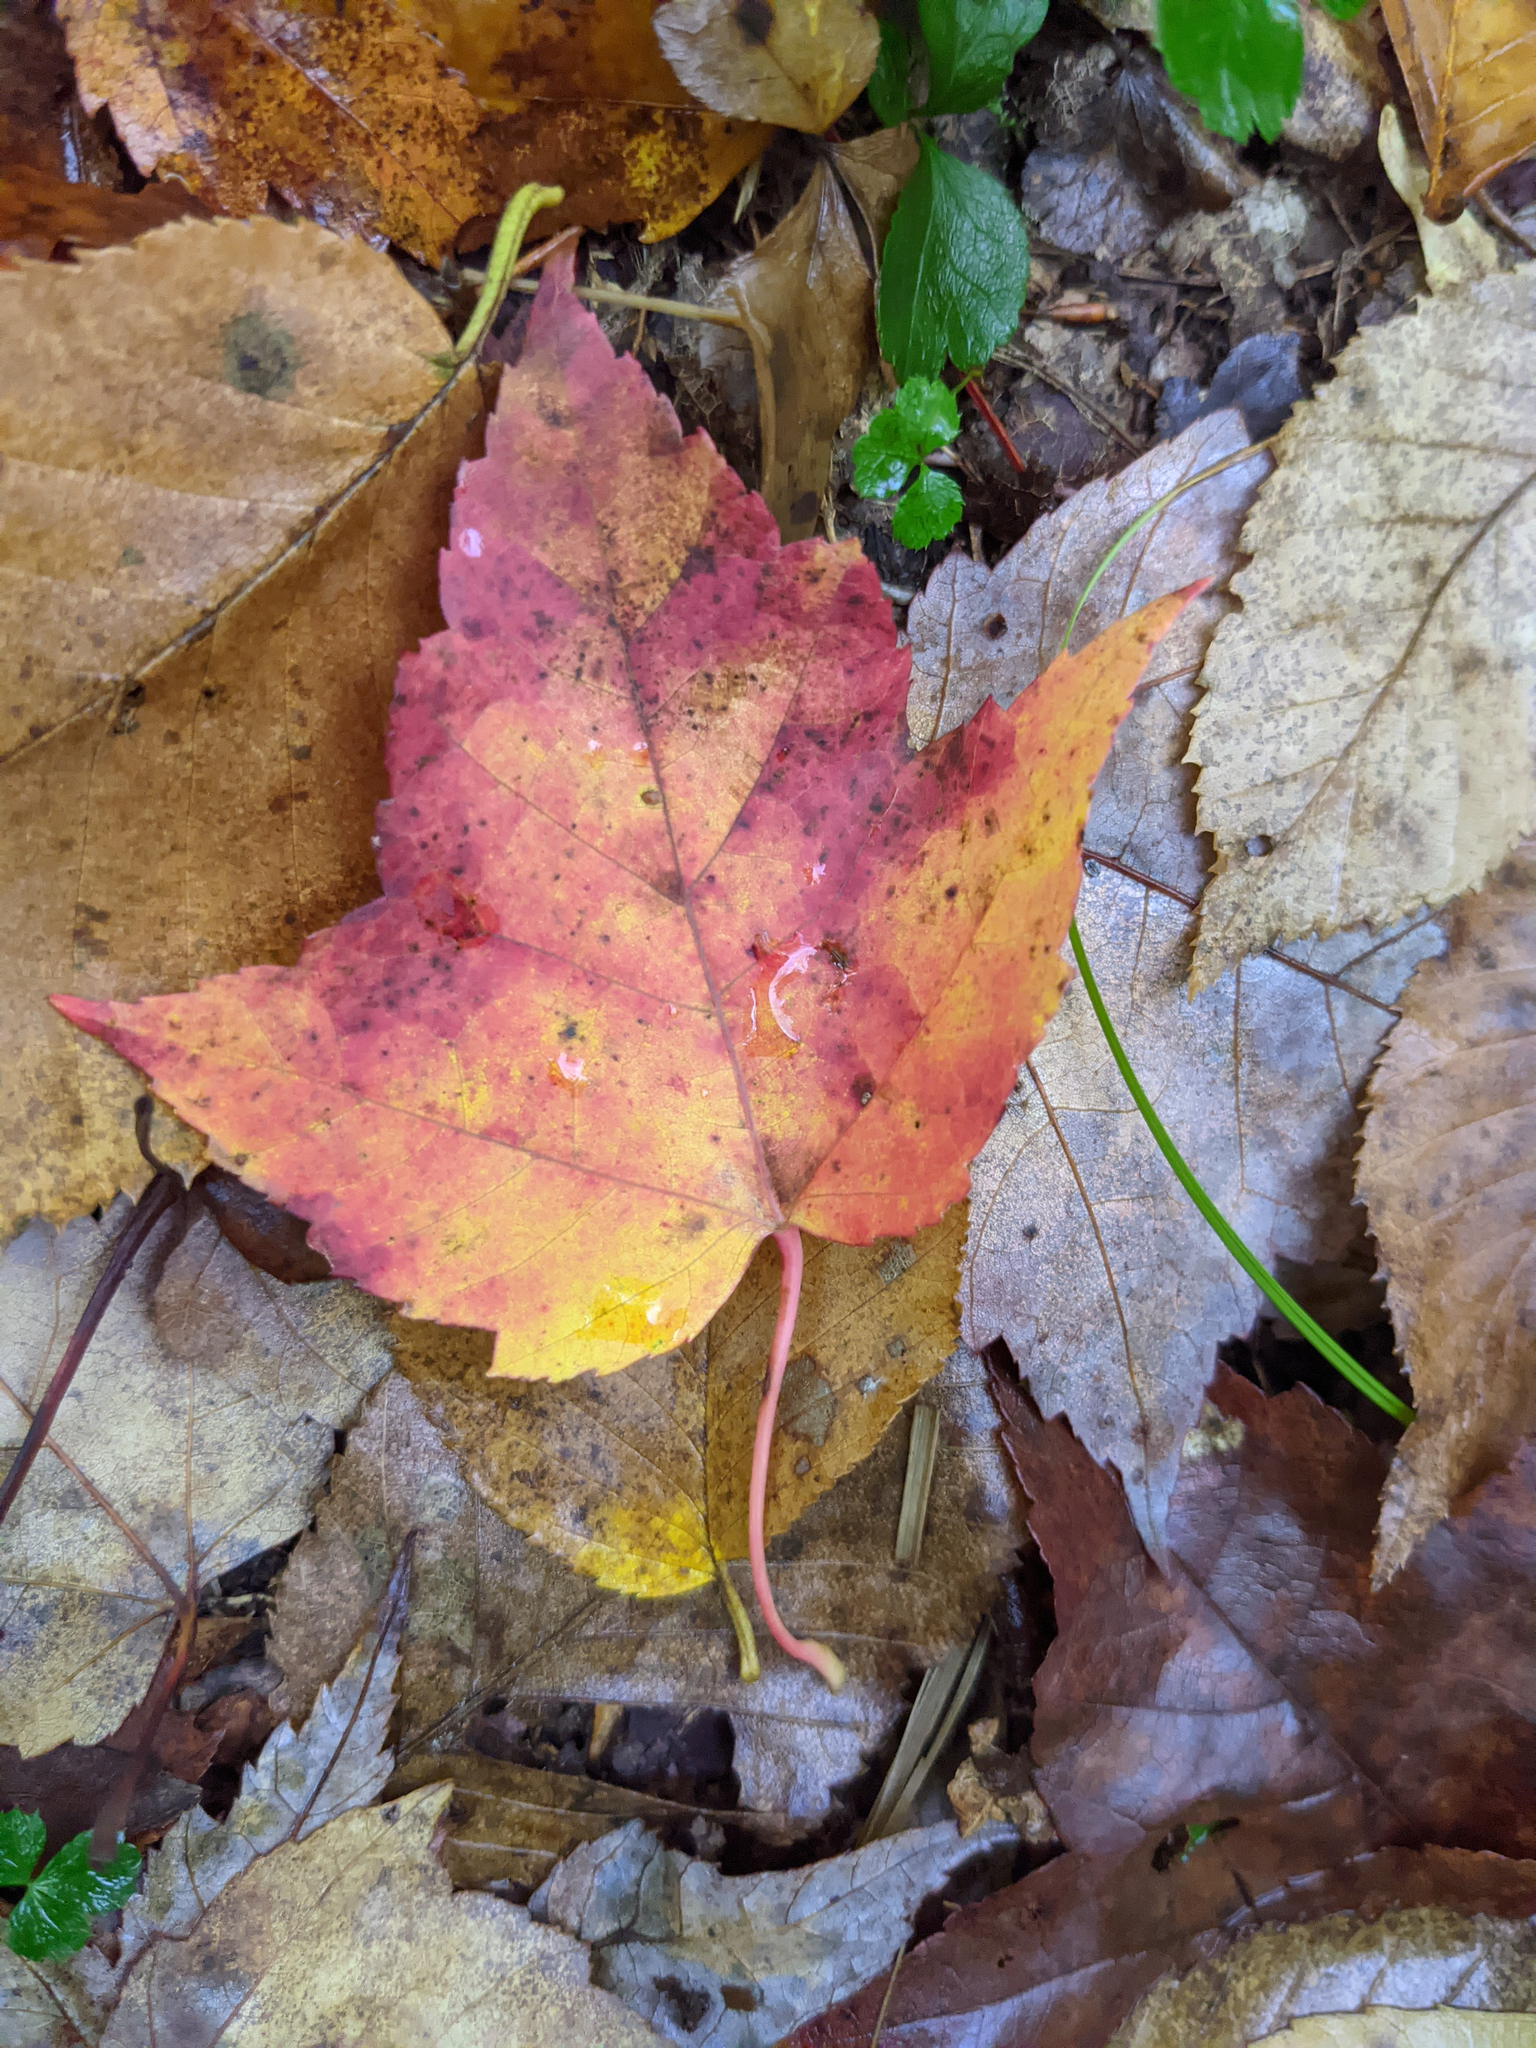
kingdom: Plantae
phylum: Tracheophyta
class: Magnoliopsida
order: Sapindales
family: Sapindaceae
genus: Acer
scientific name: Acer rubrum
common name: Red maple
